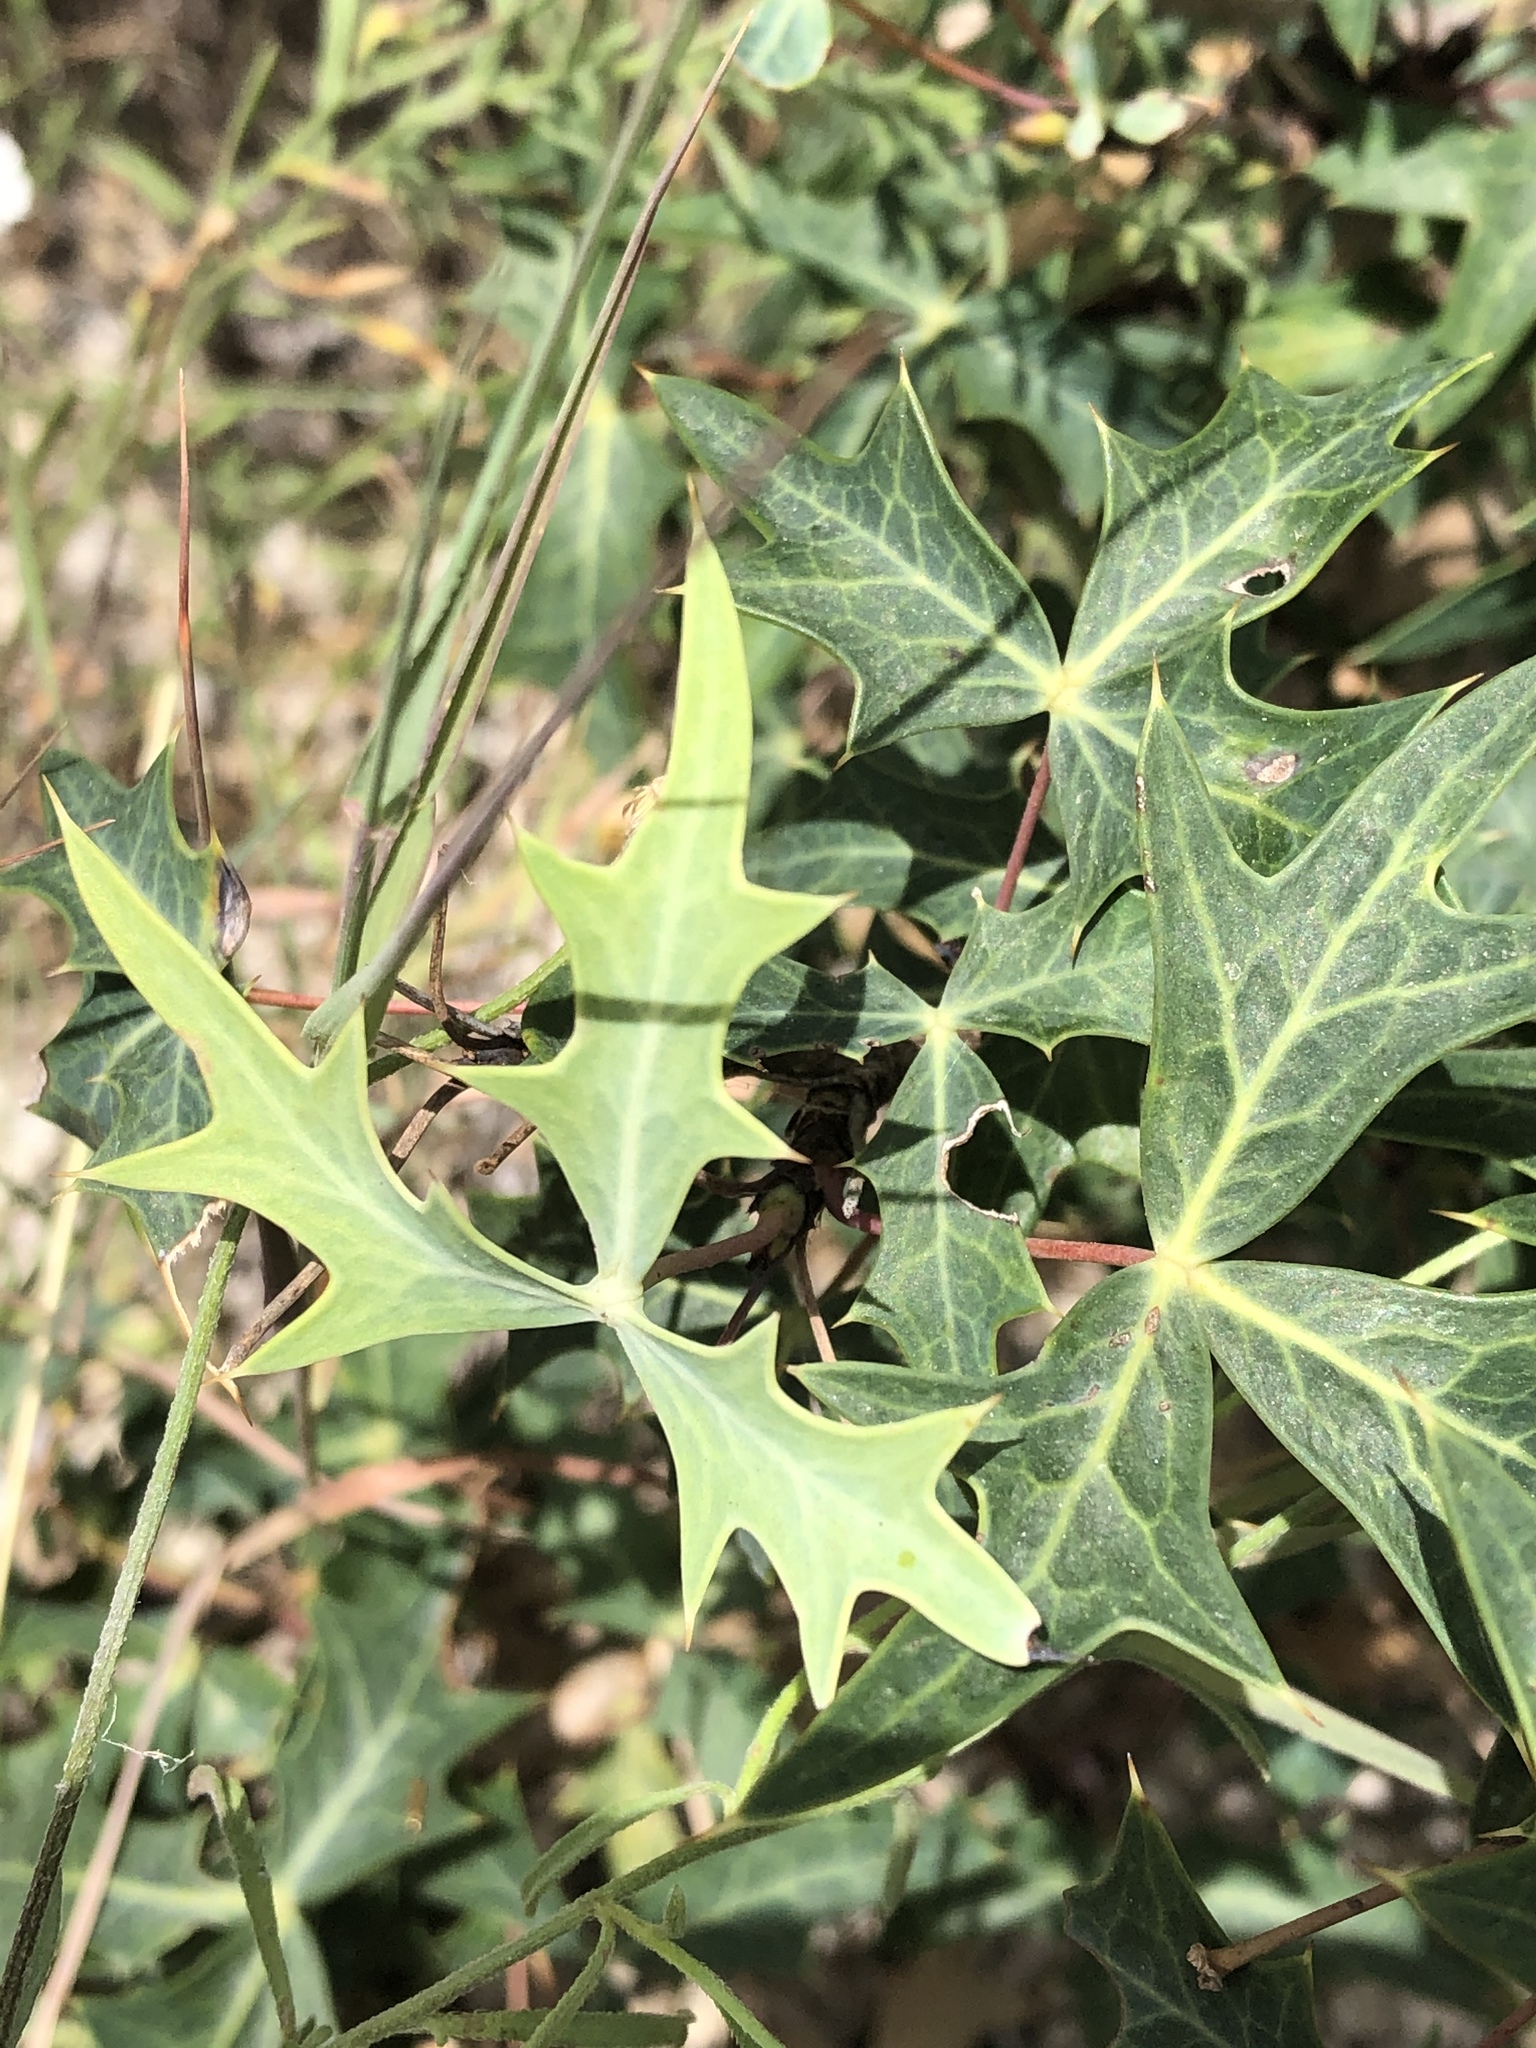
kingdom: Plantae
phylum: Tracheophyta
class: Magnoliopsida
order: Ranunculales
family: Berberidaceae
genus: Alloberberis
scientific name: Alloberberis trifoliolata
